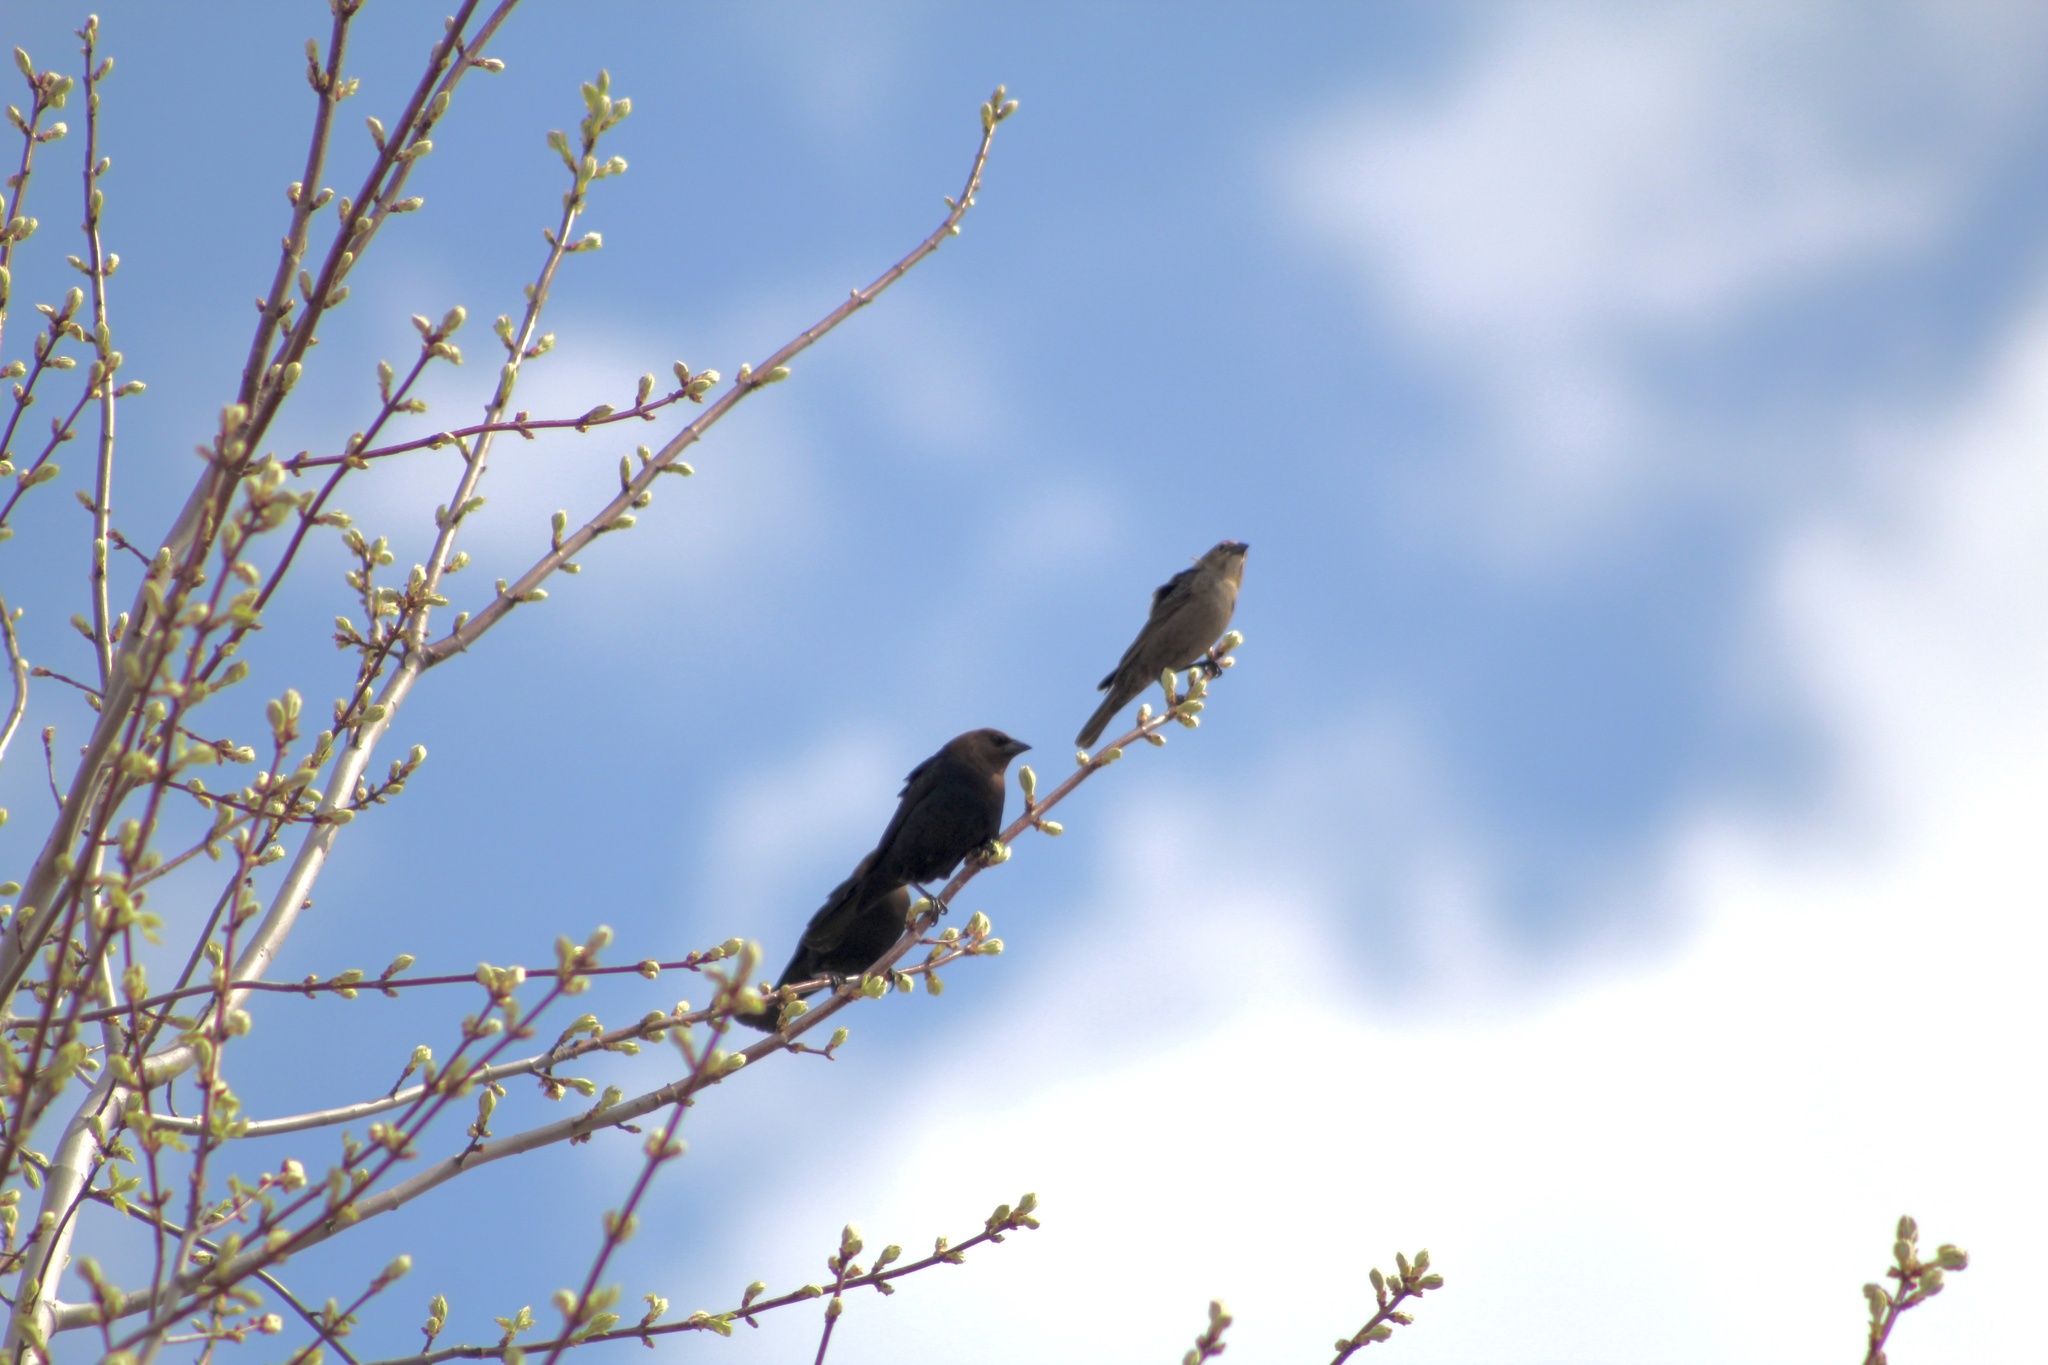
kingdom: Animalia
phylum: Chordata
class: Aves
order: Passeriformes
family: Icteridae
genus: Molothrus
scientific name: Molothrus ater
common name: Brown-headed cowbird
